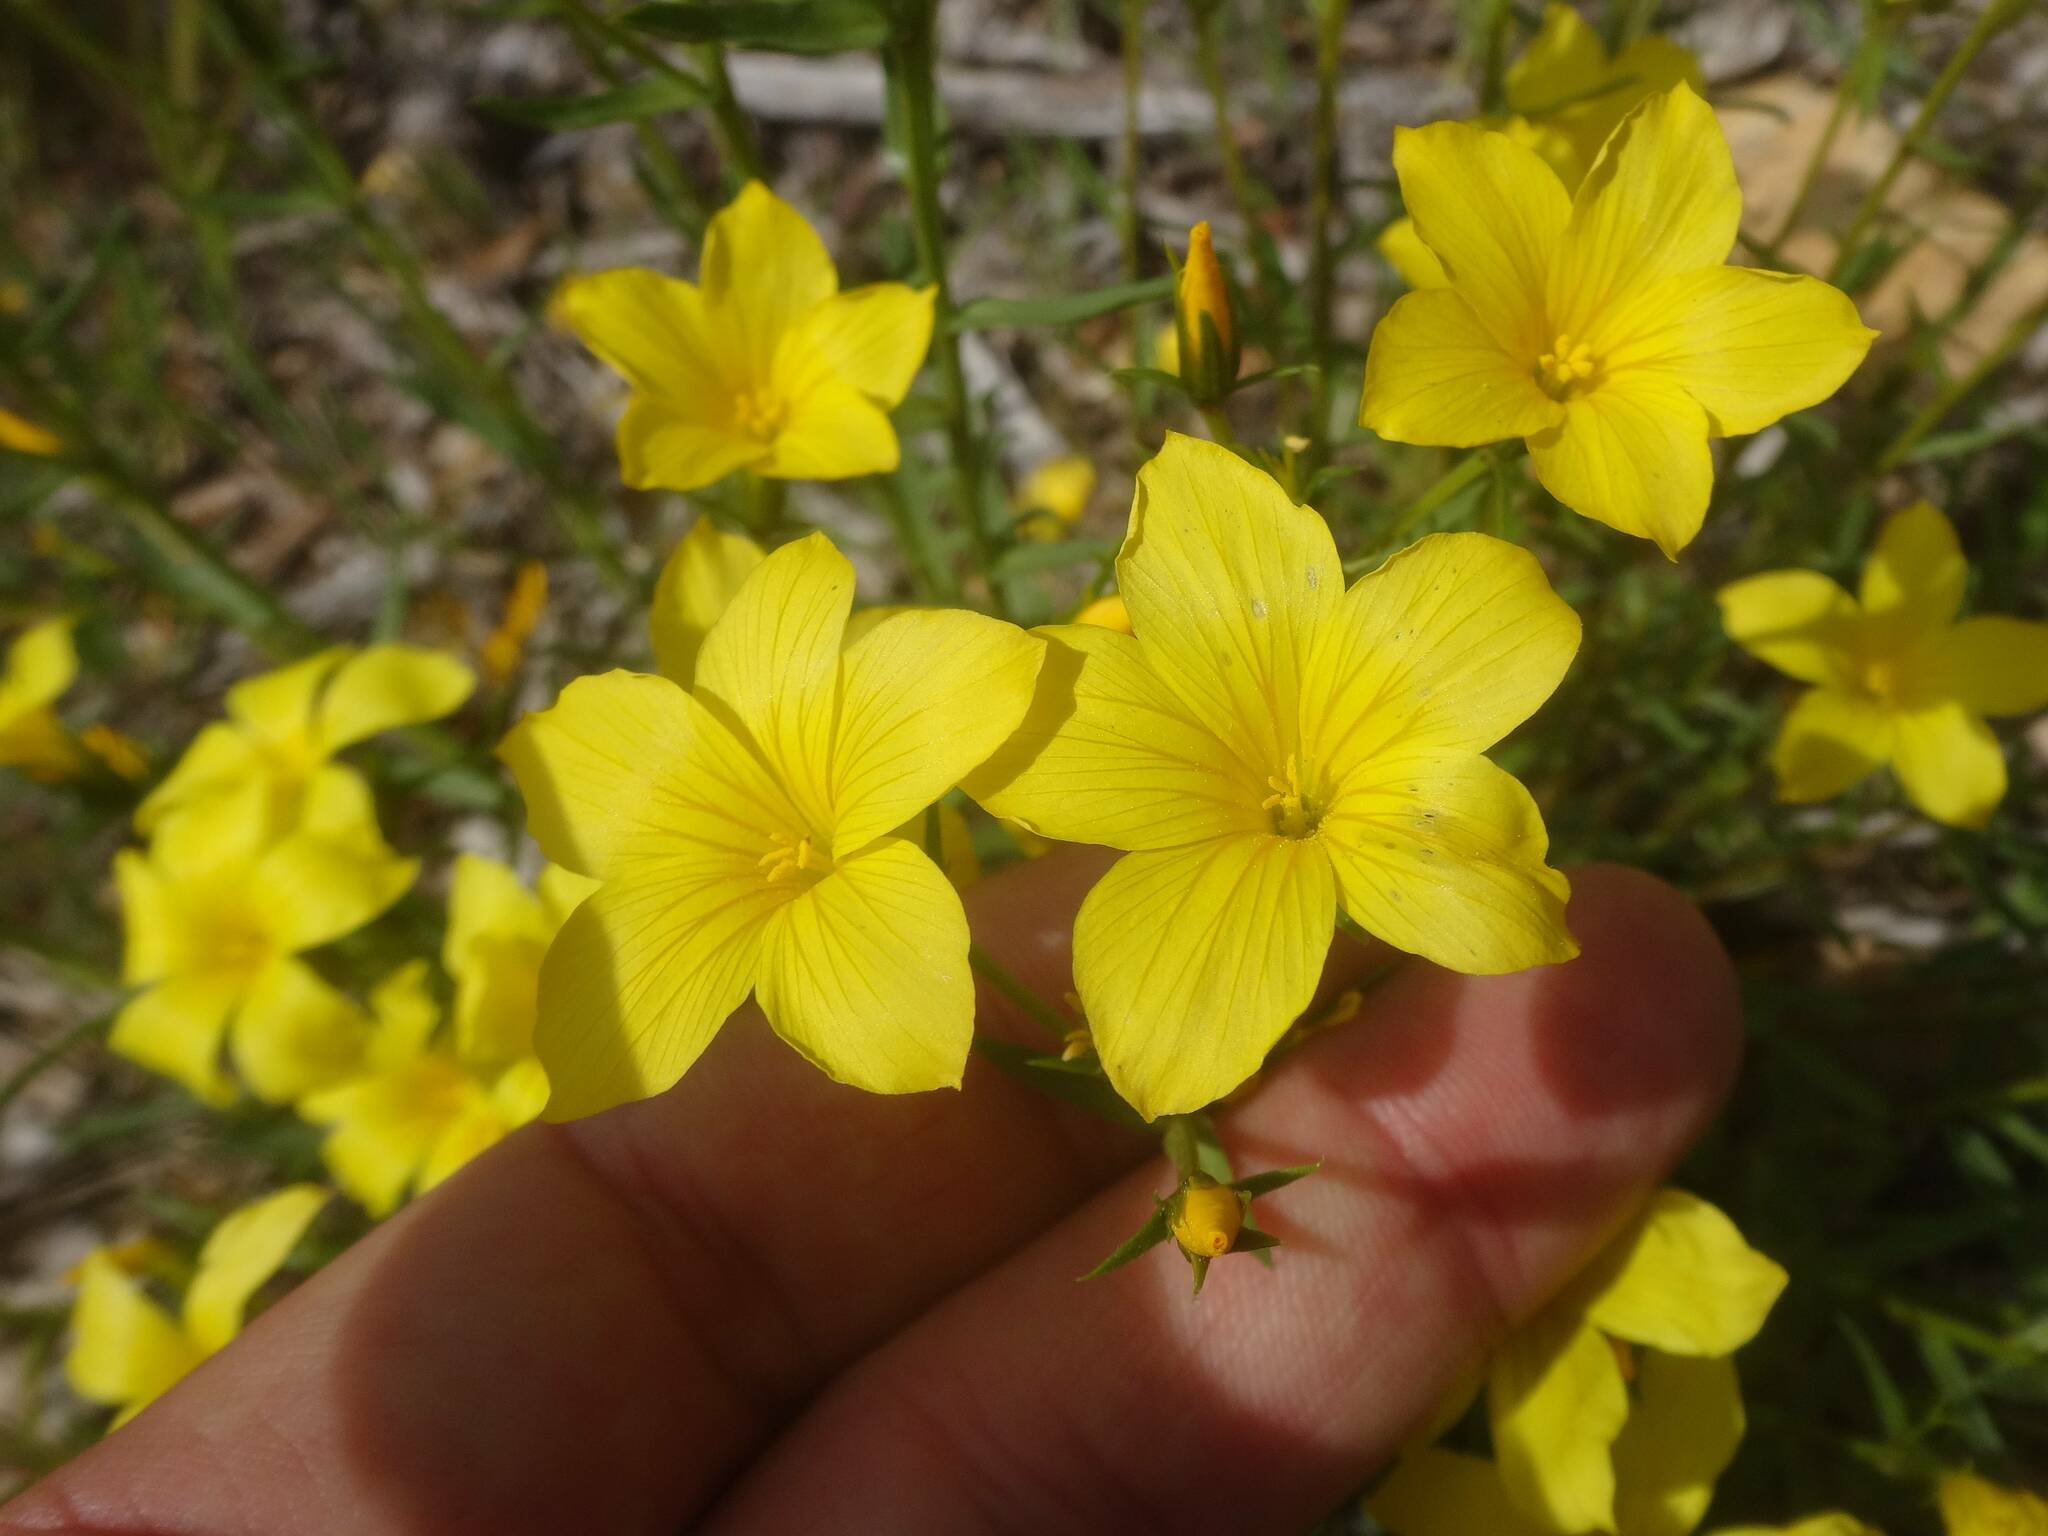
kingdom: Plantae
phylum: Tracheophyta
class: Magnoliopsida
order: Malpighiales
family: Linaceae
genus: Linum
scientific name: Linum campanulatum
